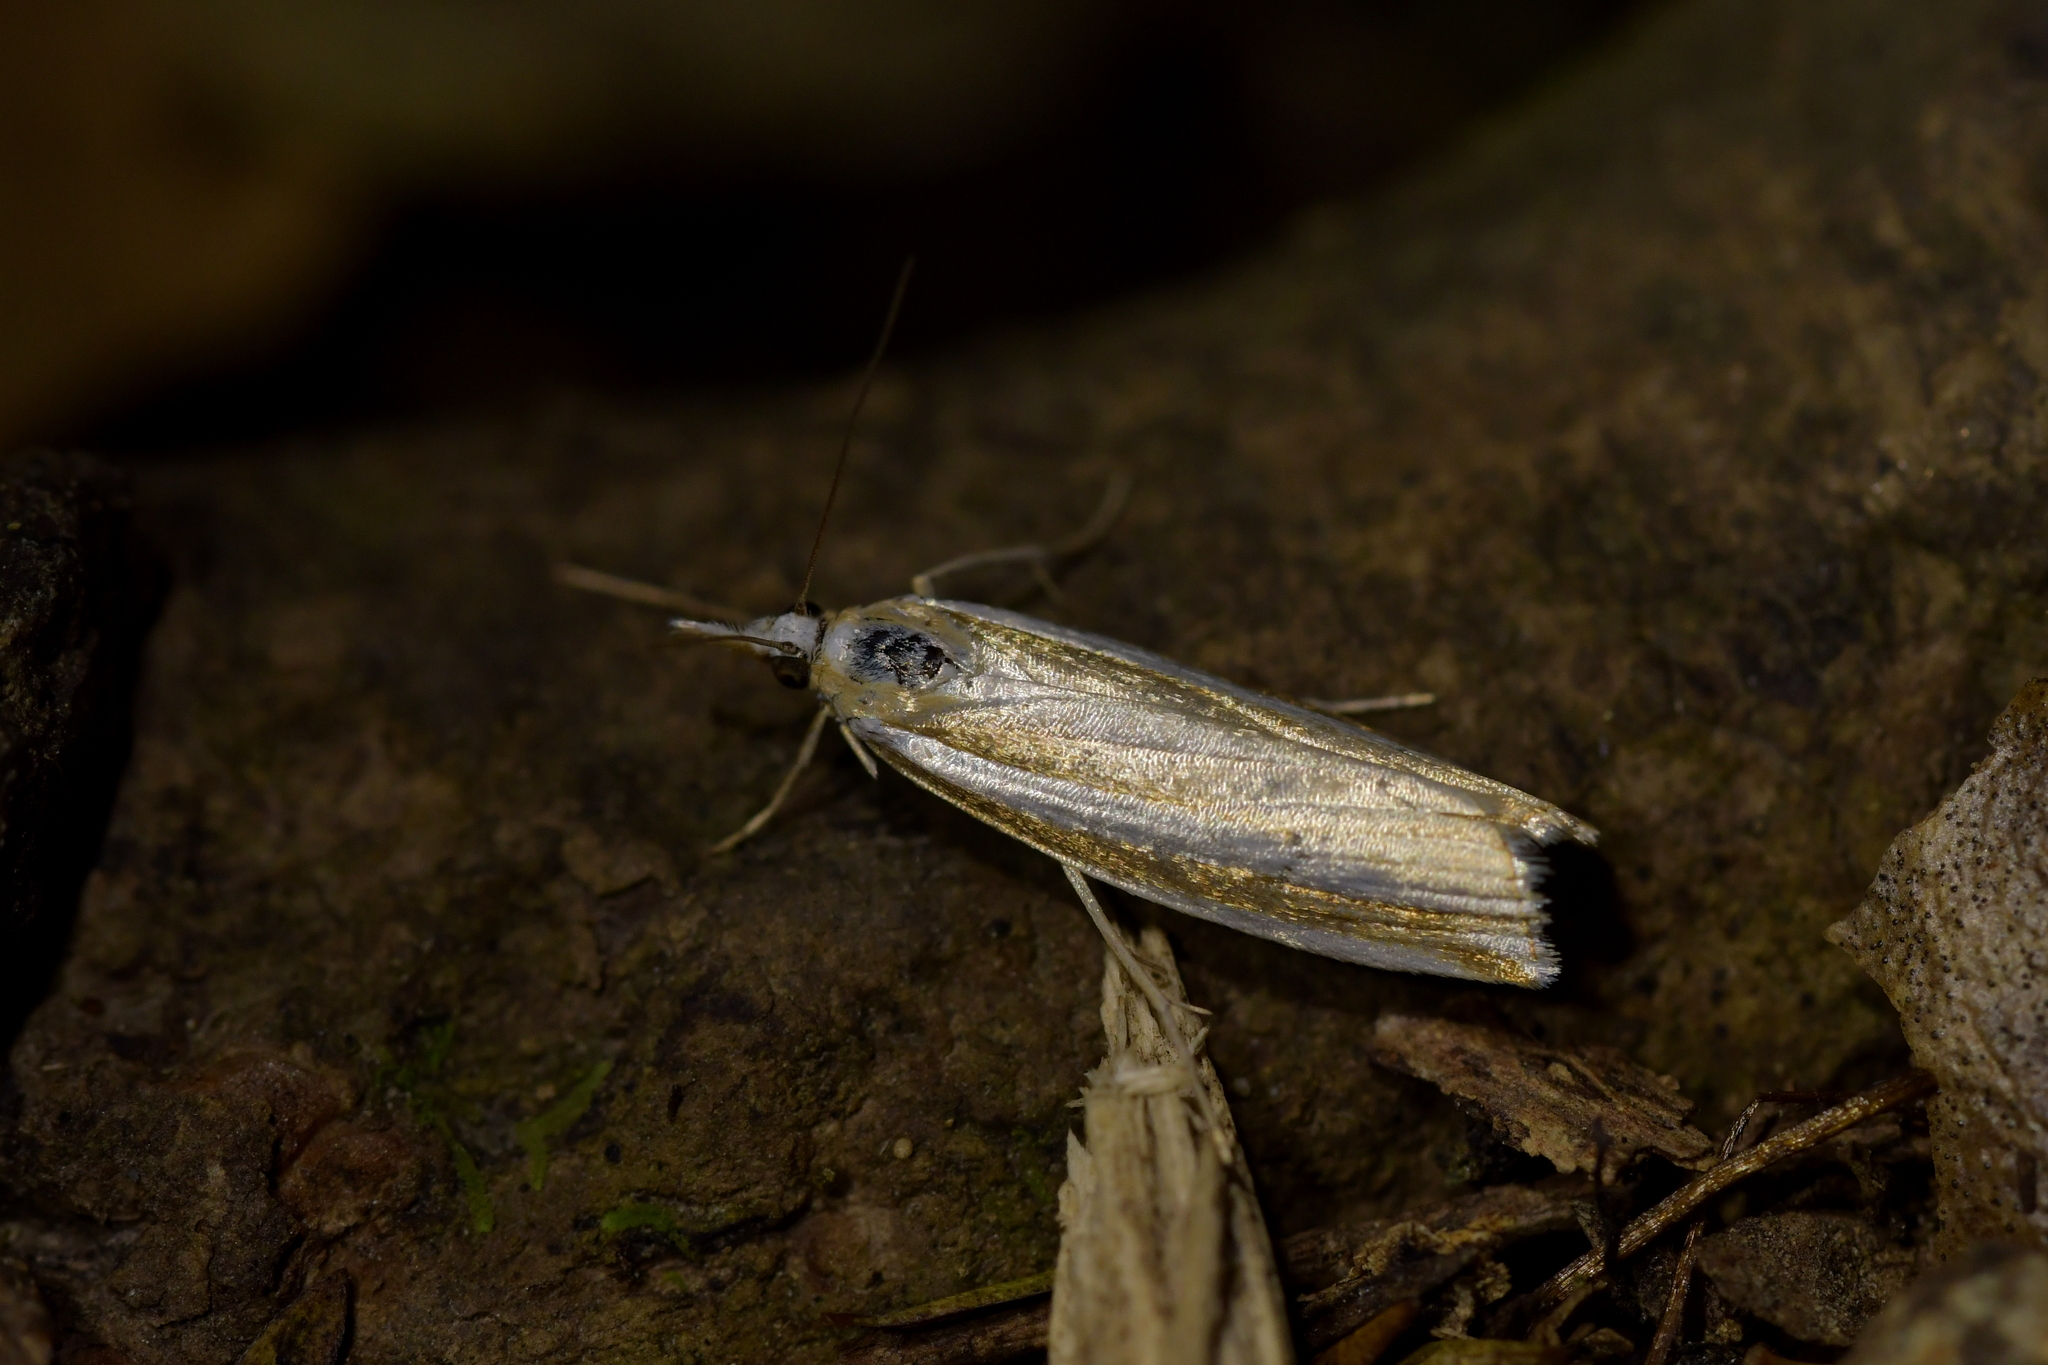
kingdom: Animalia
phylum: Arthropoda
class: Insecta
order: Lepidoptera
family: Crambidae
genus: Orocrambus
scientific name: Orocrambus apicellus
